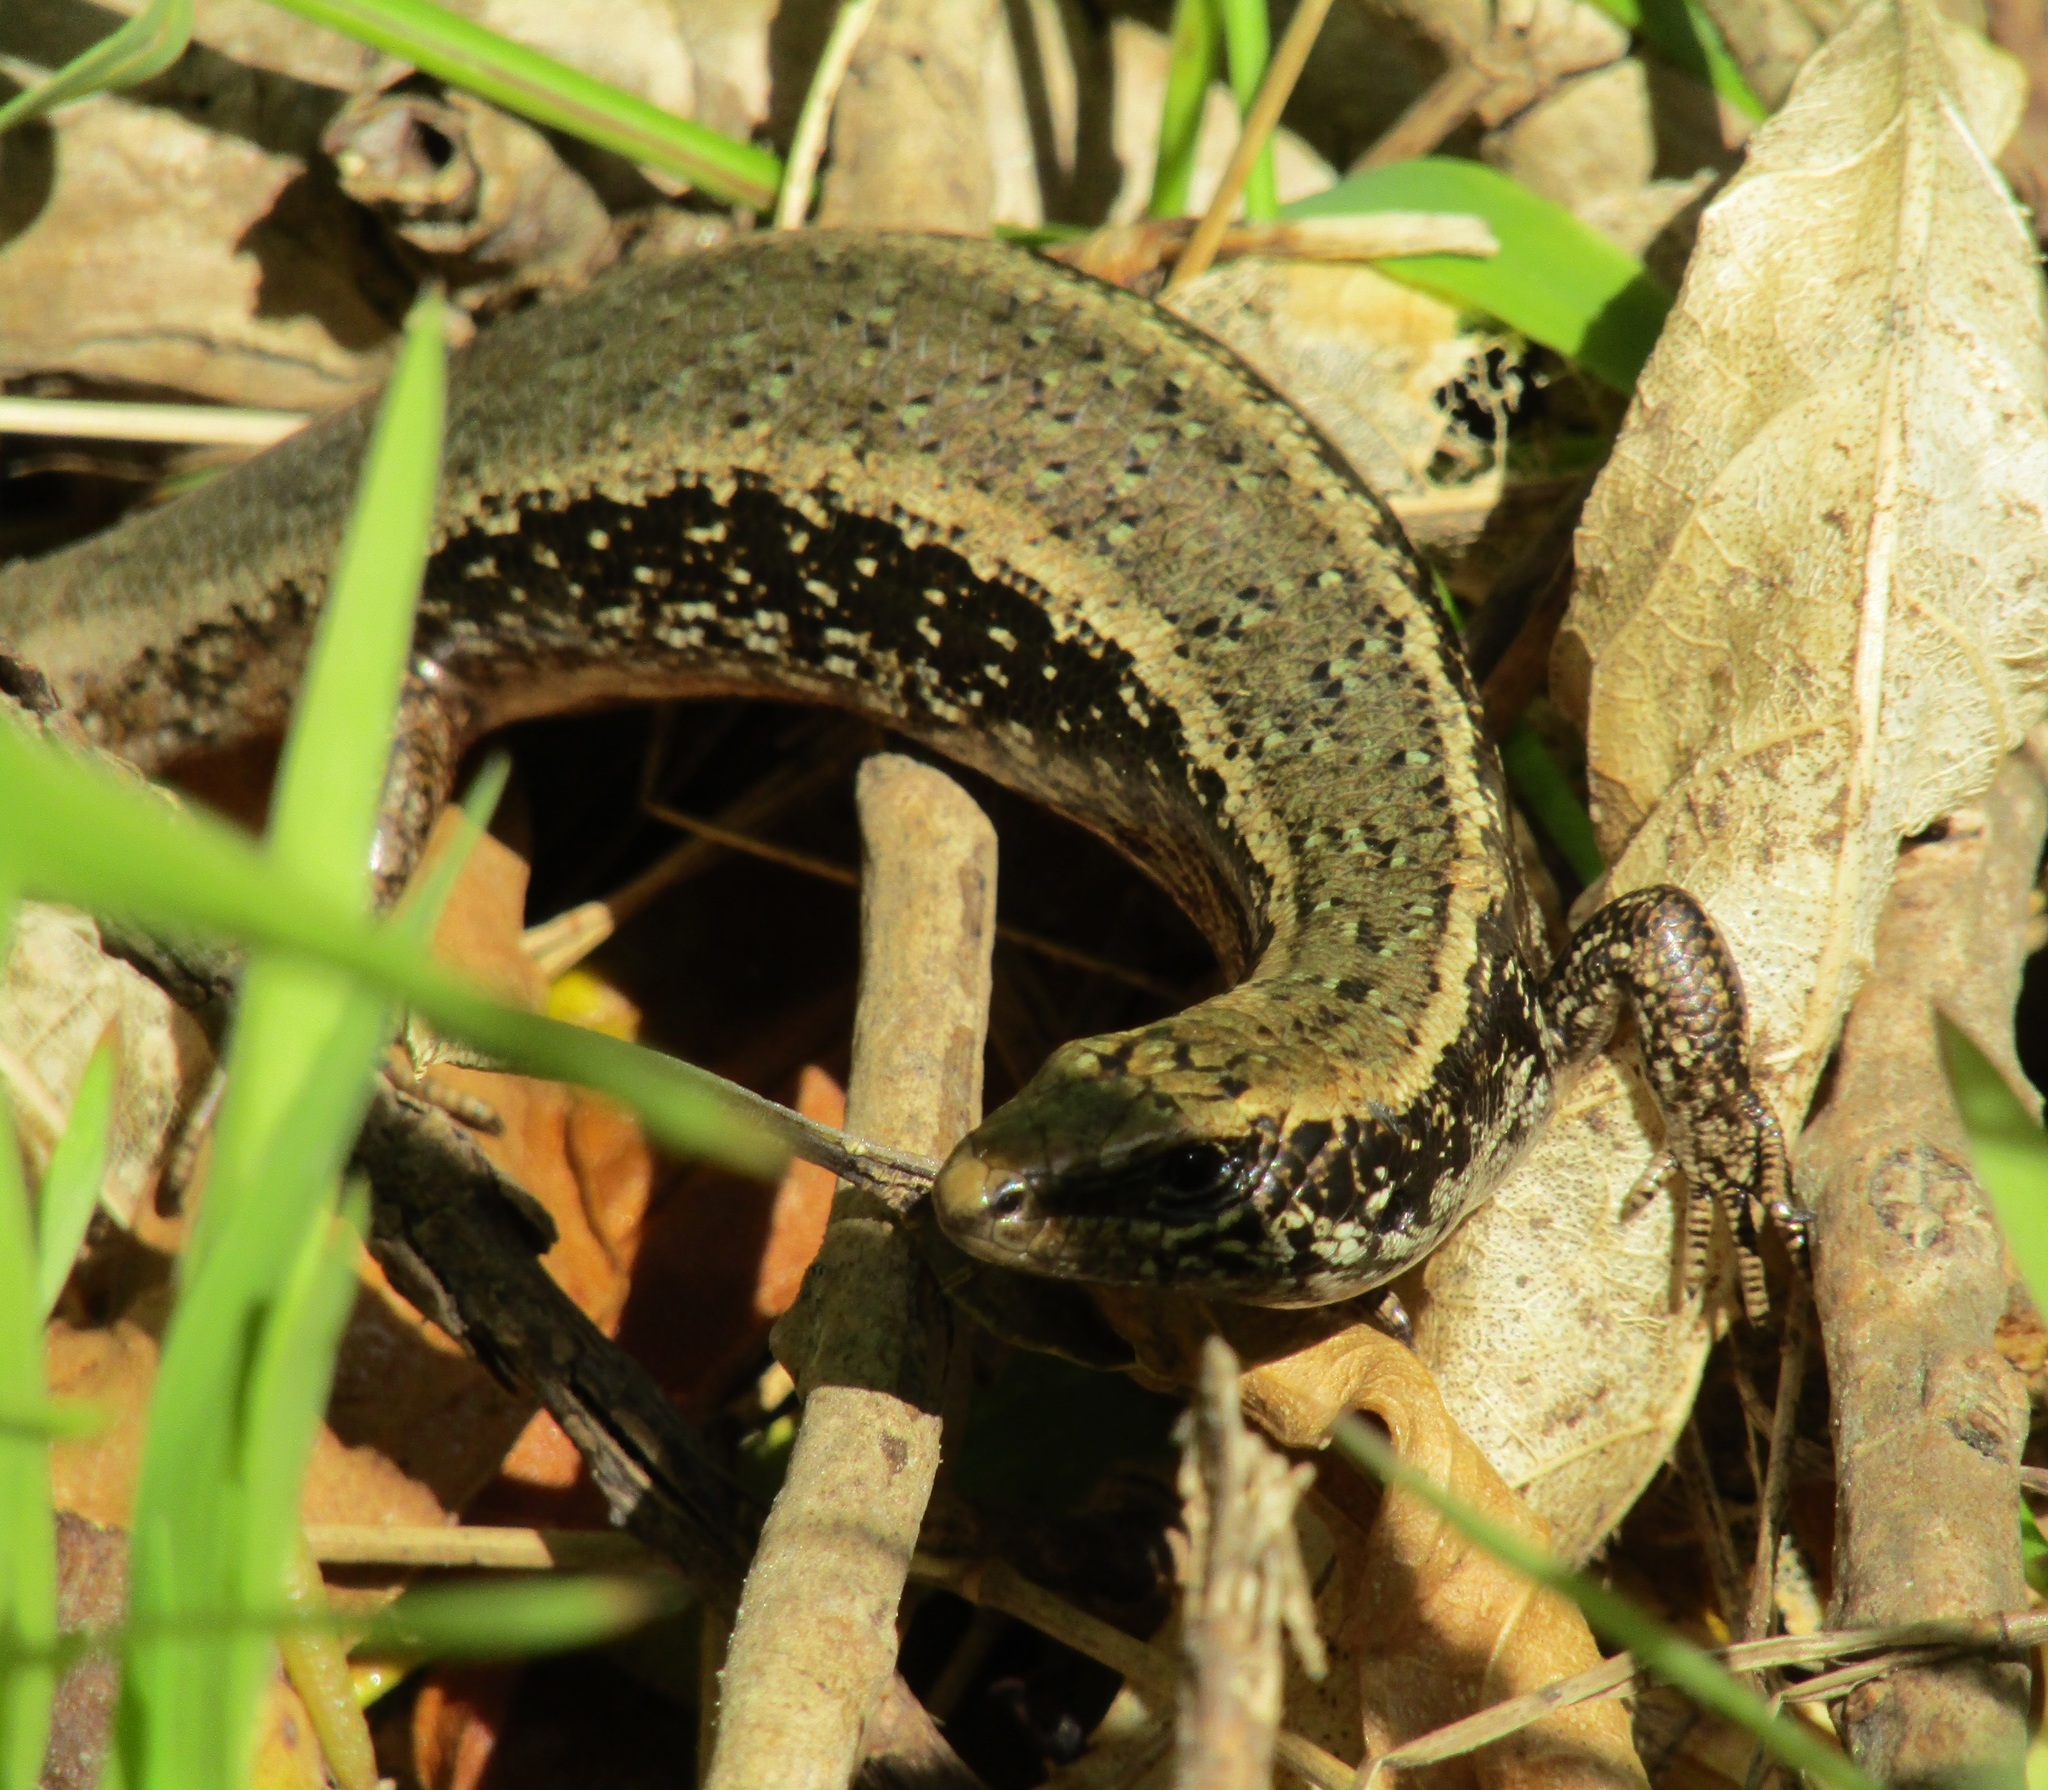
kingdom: Animalia
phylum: Chordata
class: Squamata
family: Scincidae
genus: Oligosoma
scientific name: Oligosoma kokowai
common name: Northern spotted skink
